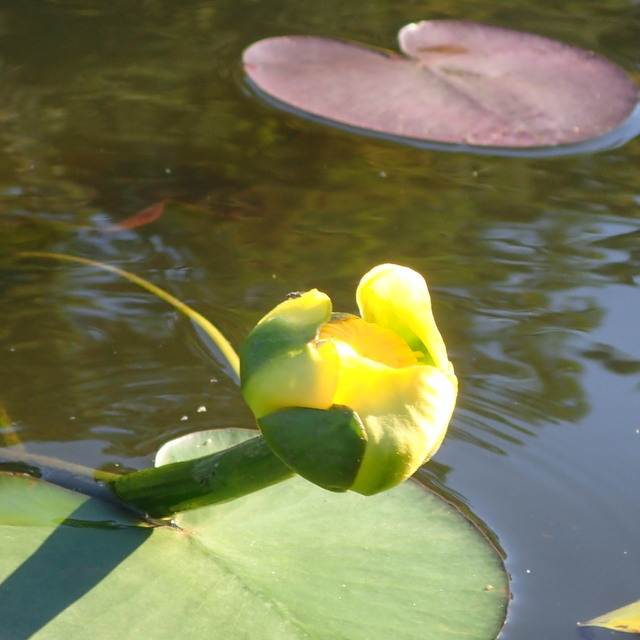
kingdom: Plantae
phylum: Tracheophyta
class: Magnoliopsida
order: Nymphaeales
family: Nymphaeaceae
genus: Nuphar
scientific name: Nuphar advena
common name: Spatter-dock
